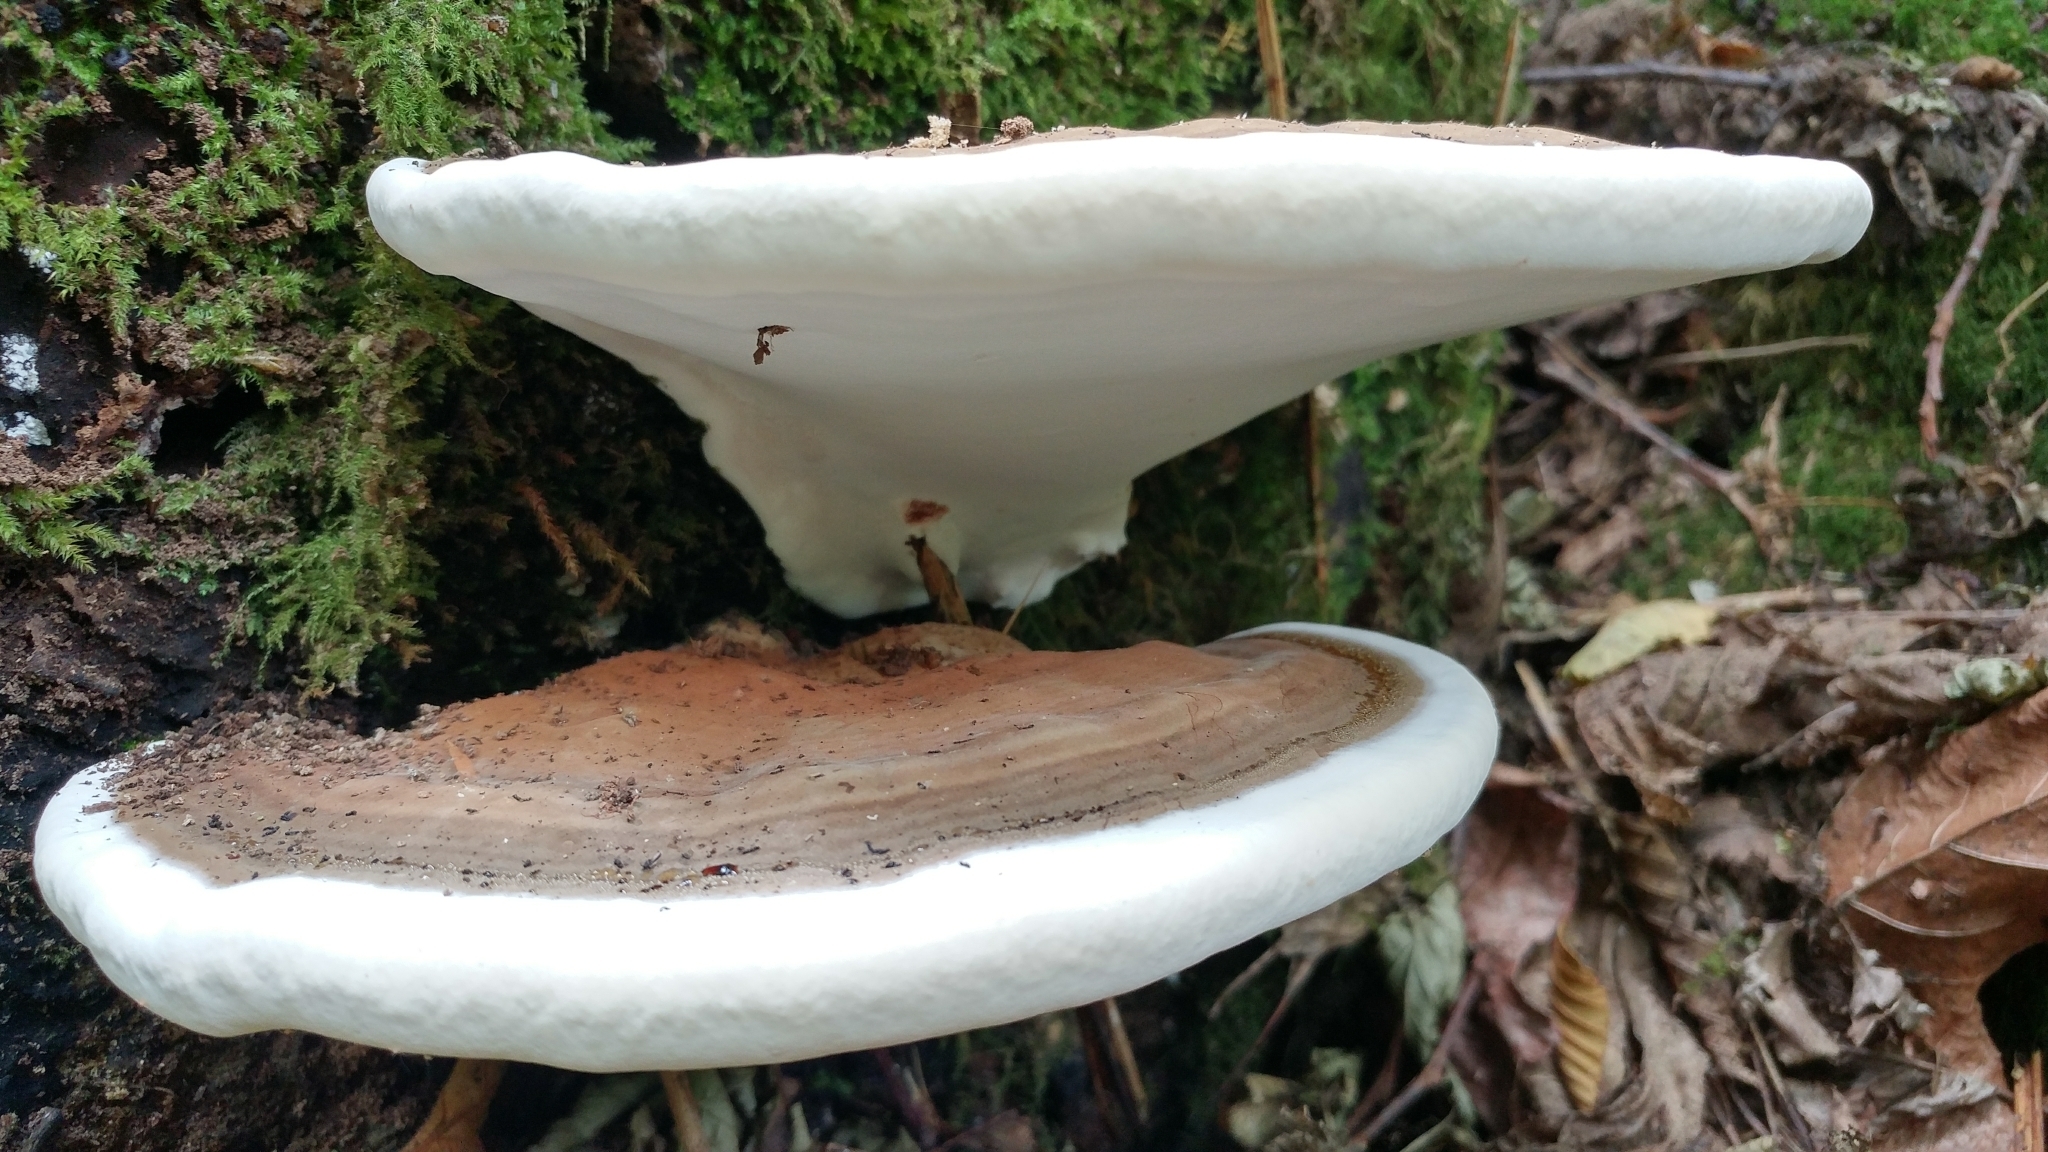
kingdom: Fungi
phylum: Basidiomycota
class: Agaricomycetes
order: Polyporales
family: Polyporaceae
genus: Ganoderma
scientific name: Ganoderma applanatum
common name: Artist's bracket
